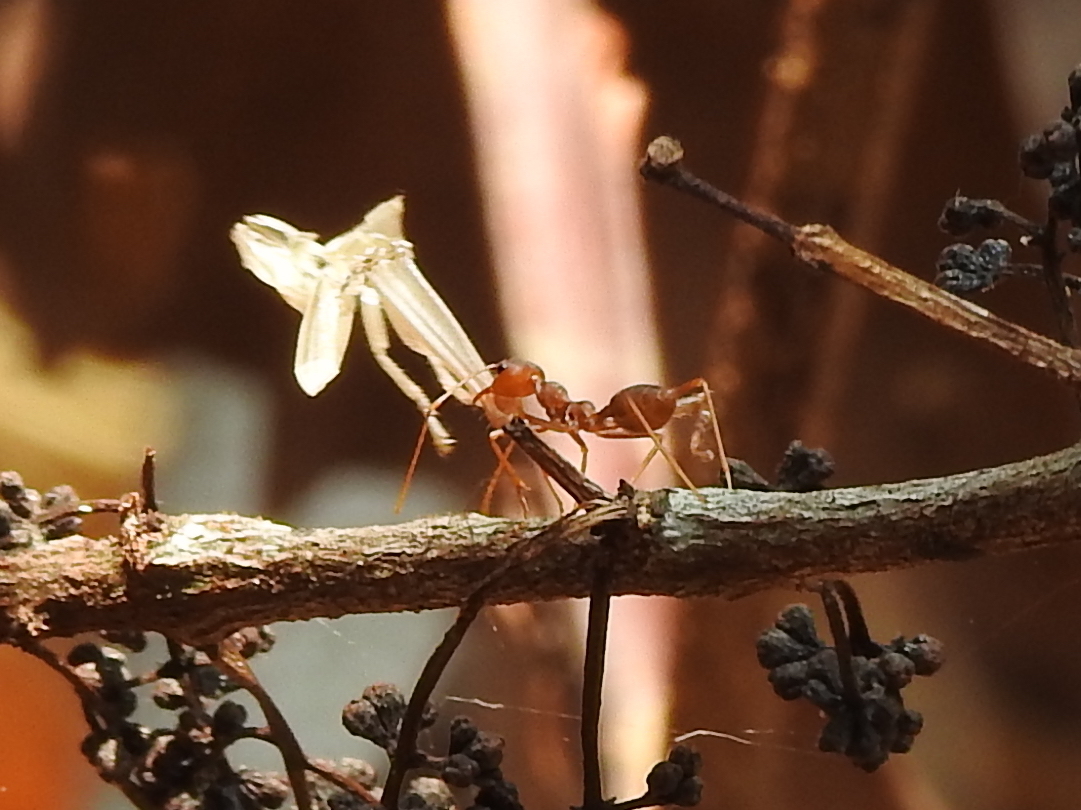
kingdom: Animalia
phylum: Arthropoda
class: Insecta
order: Hymenoptera
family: Formicidae
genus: Oecophylla
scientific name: Oecophylla smaragdina
